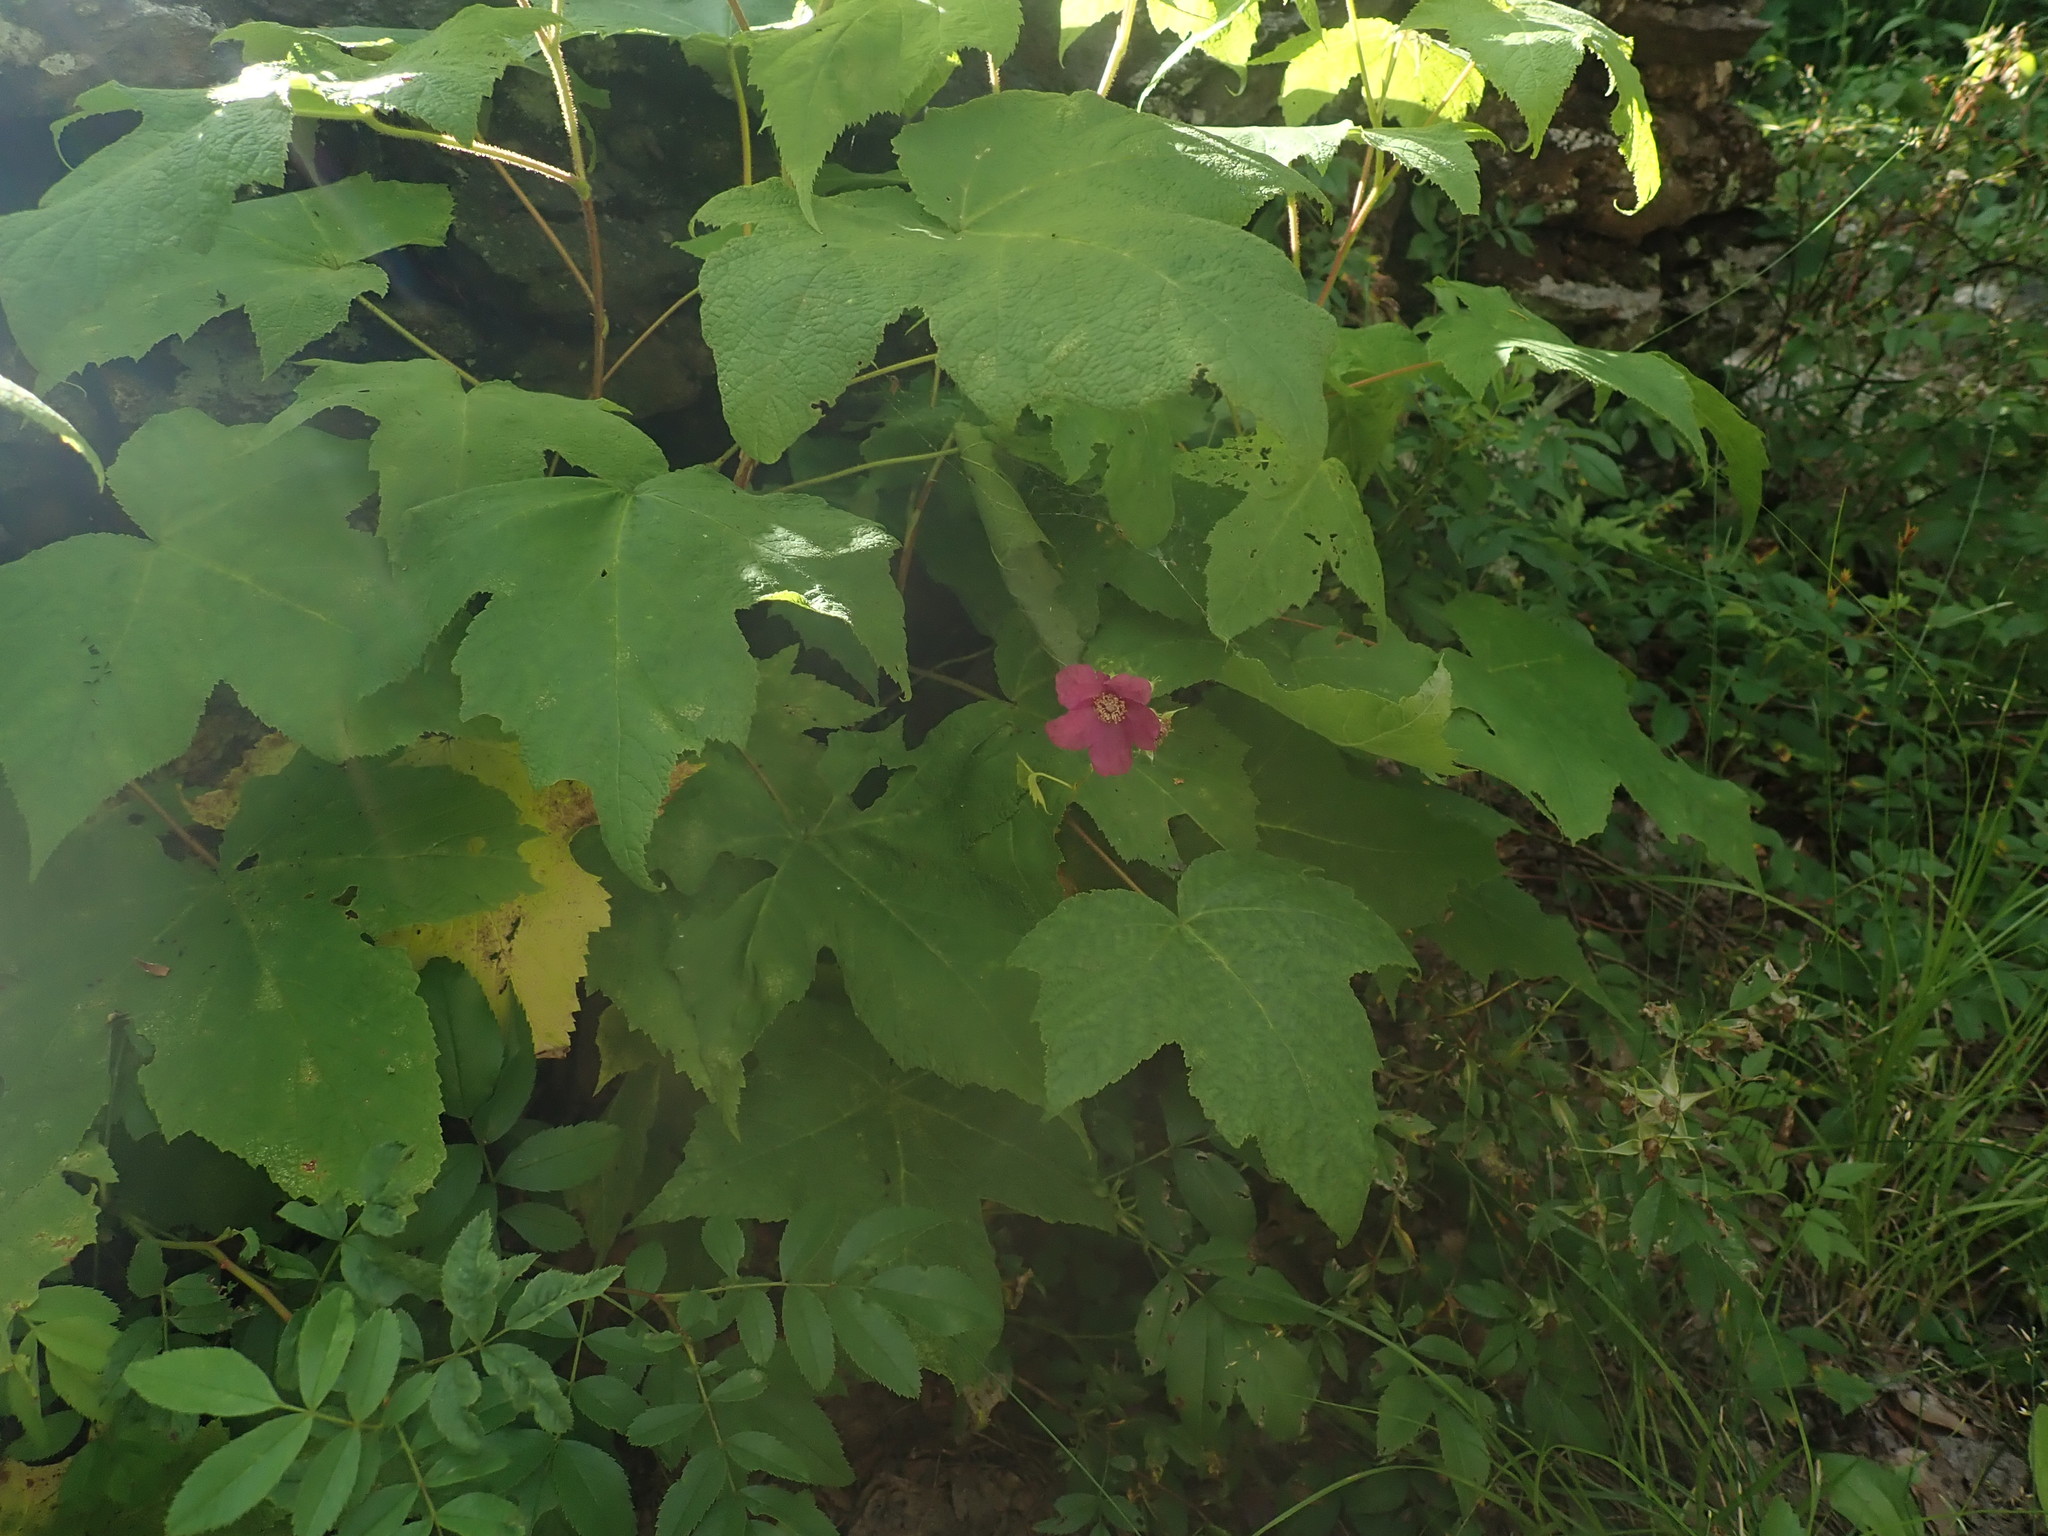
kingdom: Plantae
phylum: Tracheophyta
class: Magnoliopsida
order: Rosales
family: Rosaceae
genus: Rubus
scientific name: Rubus odoratus
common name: Purple-flowered raspberry
